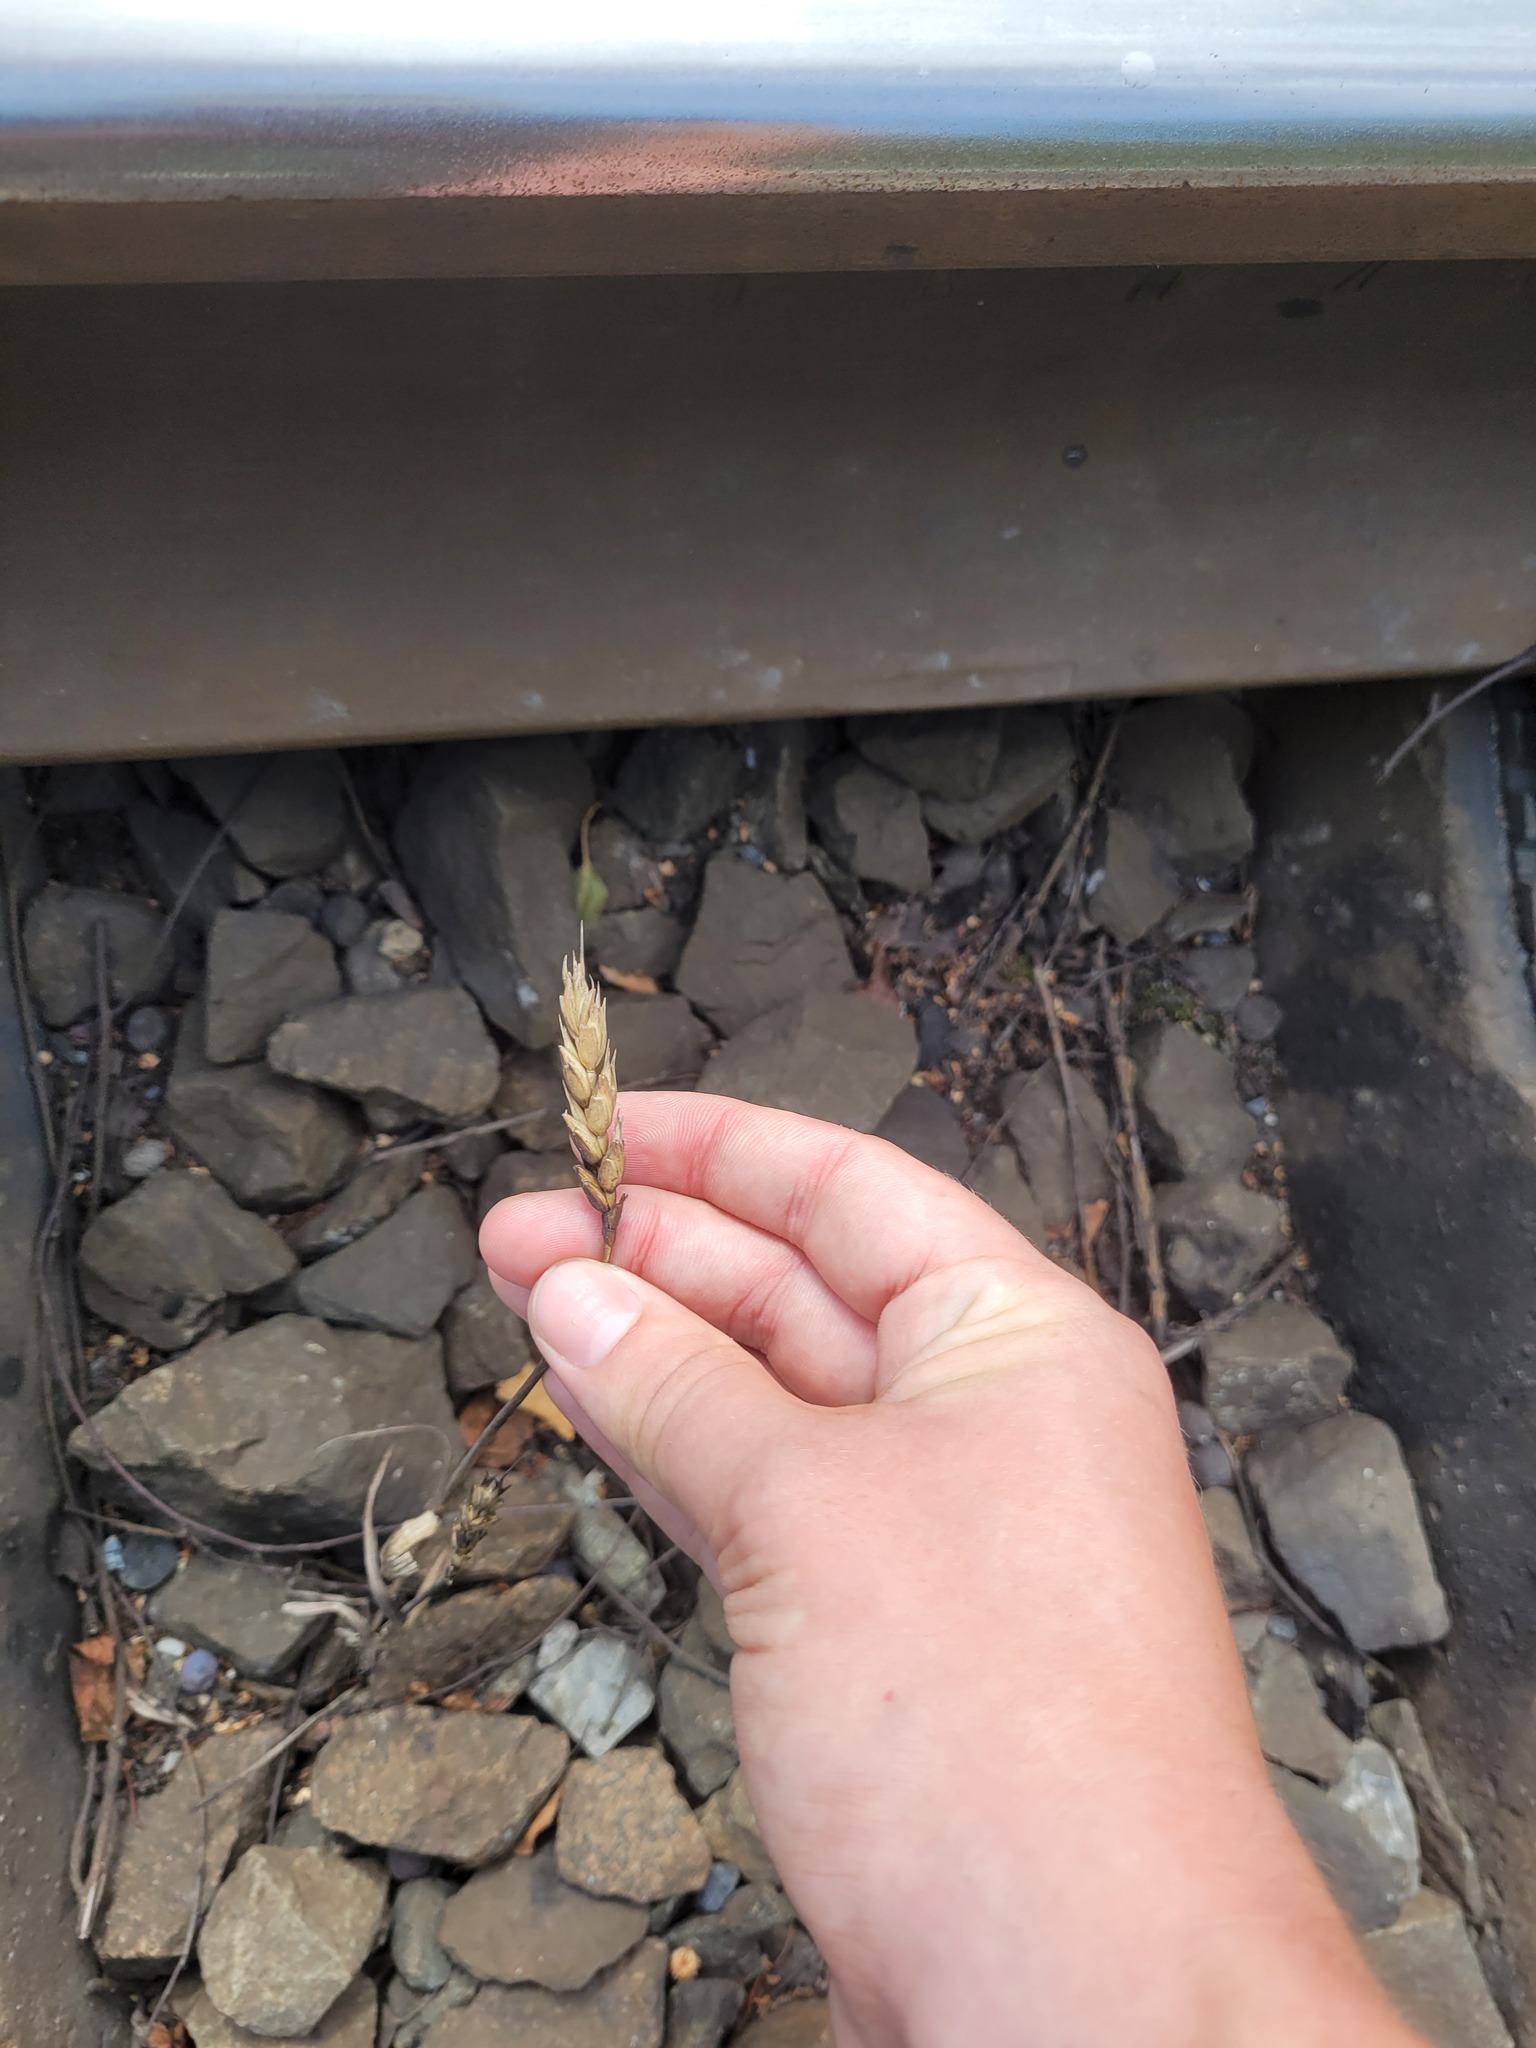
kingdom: Plantae
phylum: Tracheophyta
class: Liliopsida
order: Poales
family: Poaceae
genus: Triticum
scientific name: Triticum aestivum
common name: Common wheat
